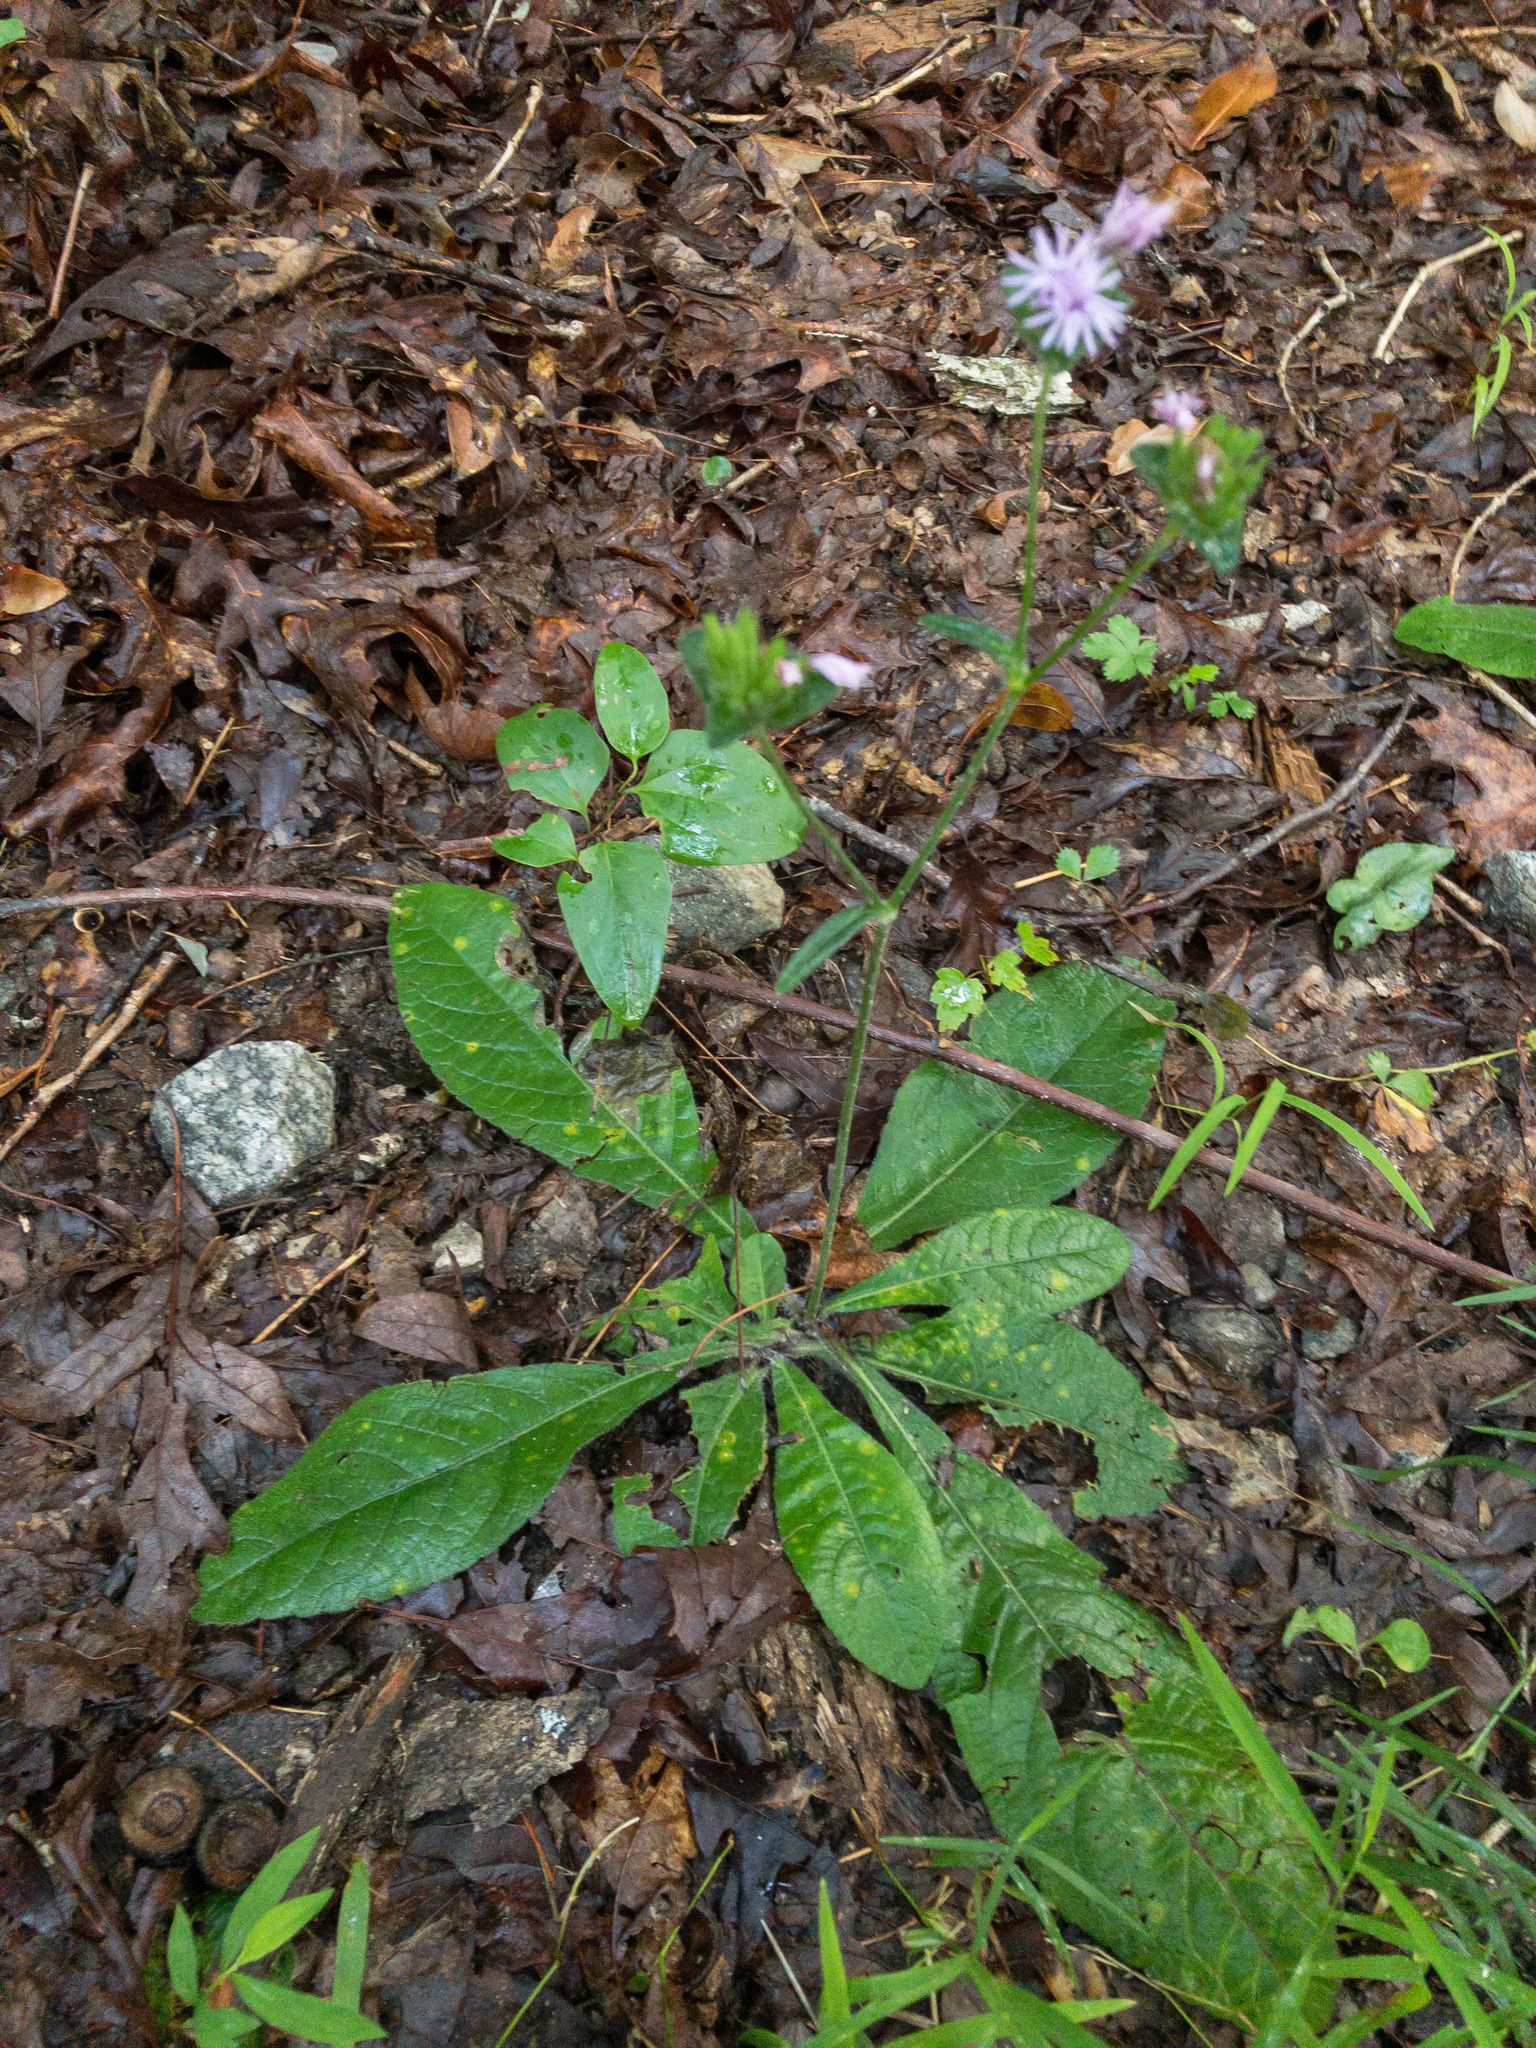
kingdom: Plantae
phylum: Tracheophyta
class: Magnoliopsida
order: Asterales
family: Asteraceae
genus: Elephantopus
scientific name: Elephantopus tomentosus
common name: Tobacco-weed
